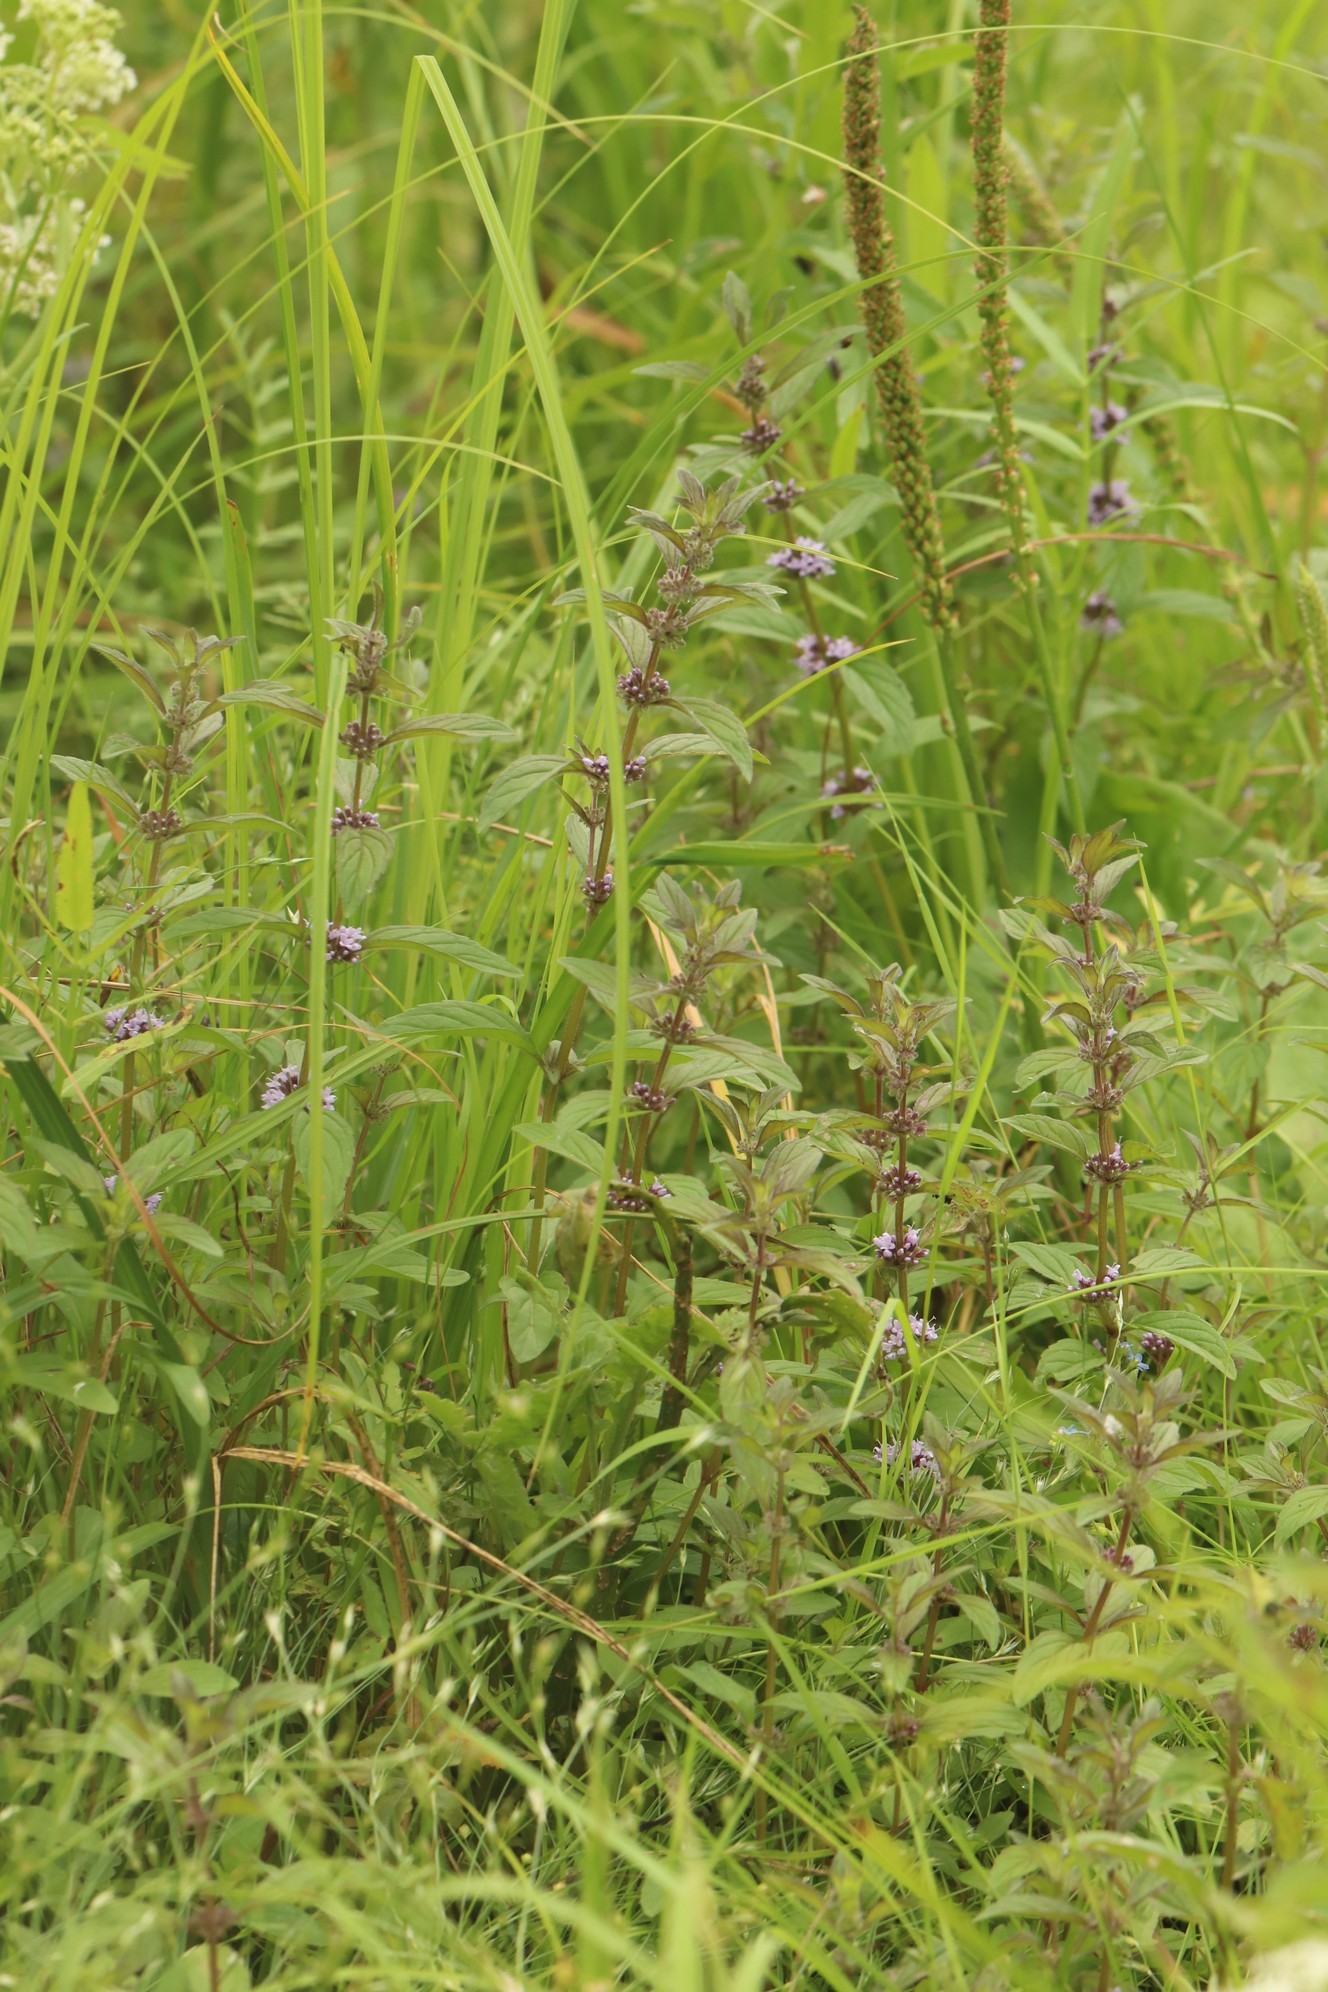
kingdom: Plantae
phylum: Tracheophyta
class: Magnoliopsida
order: Lamiales
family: Lamiaceae
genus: Mentha
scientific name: Mentha arvensis
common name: Corn mint
